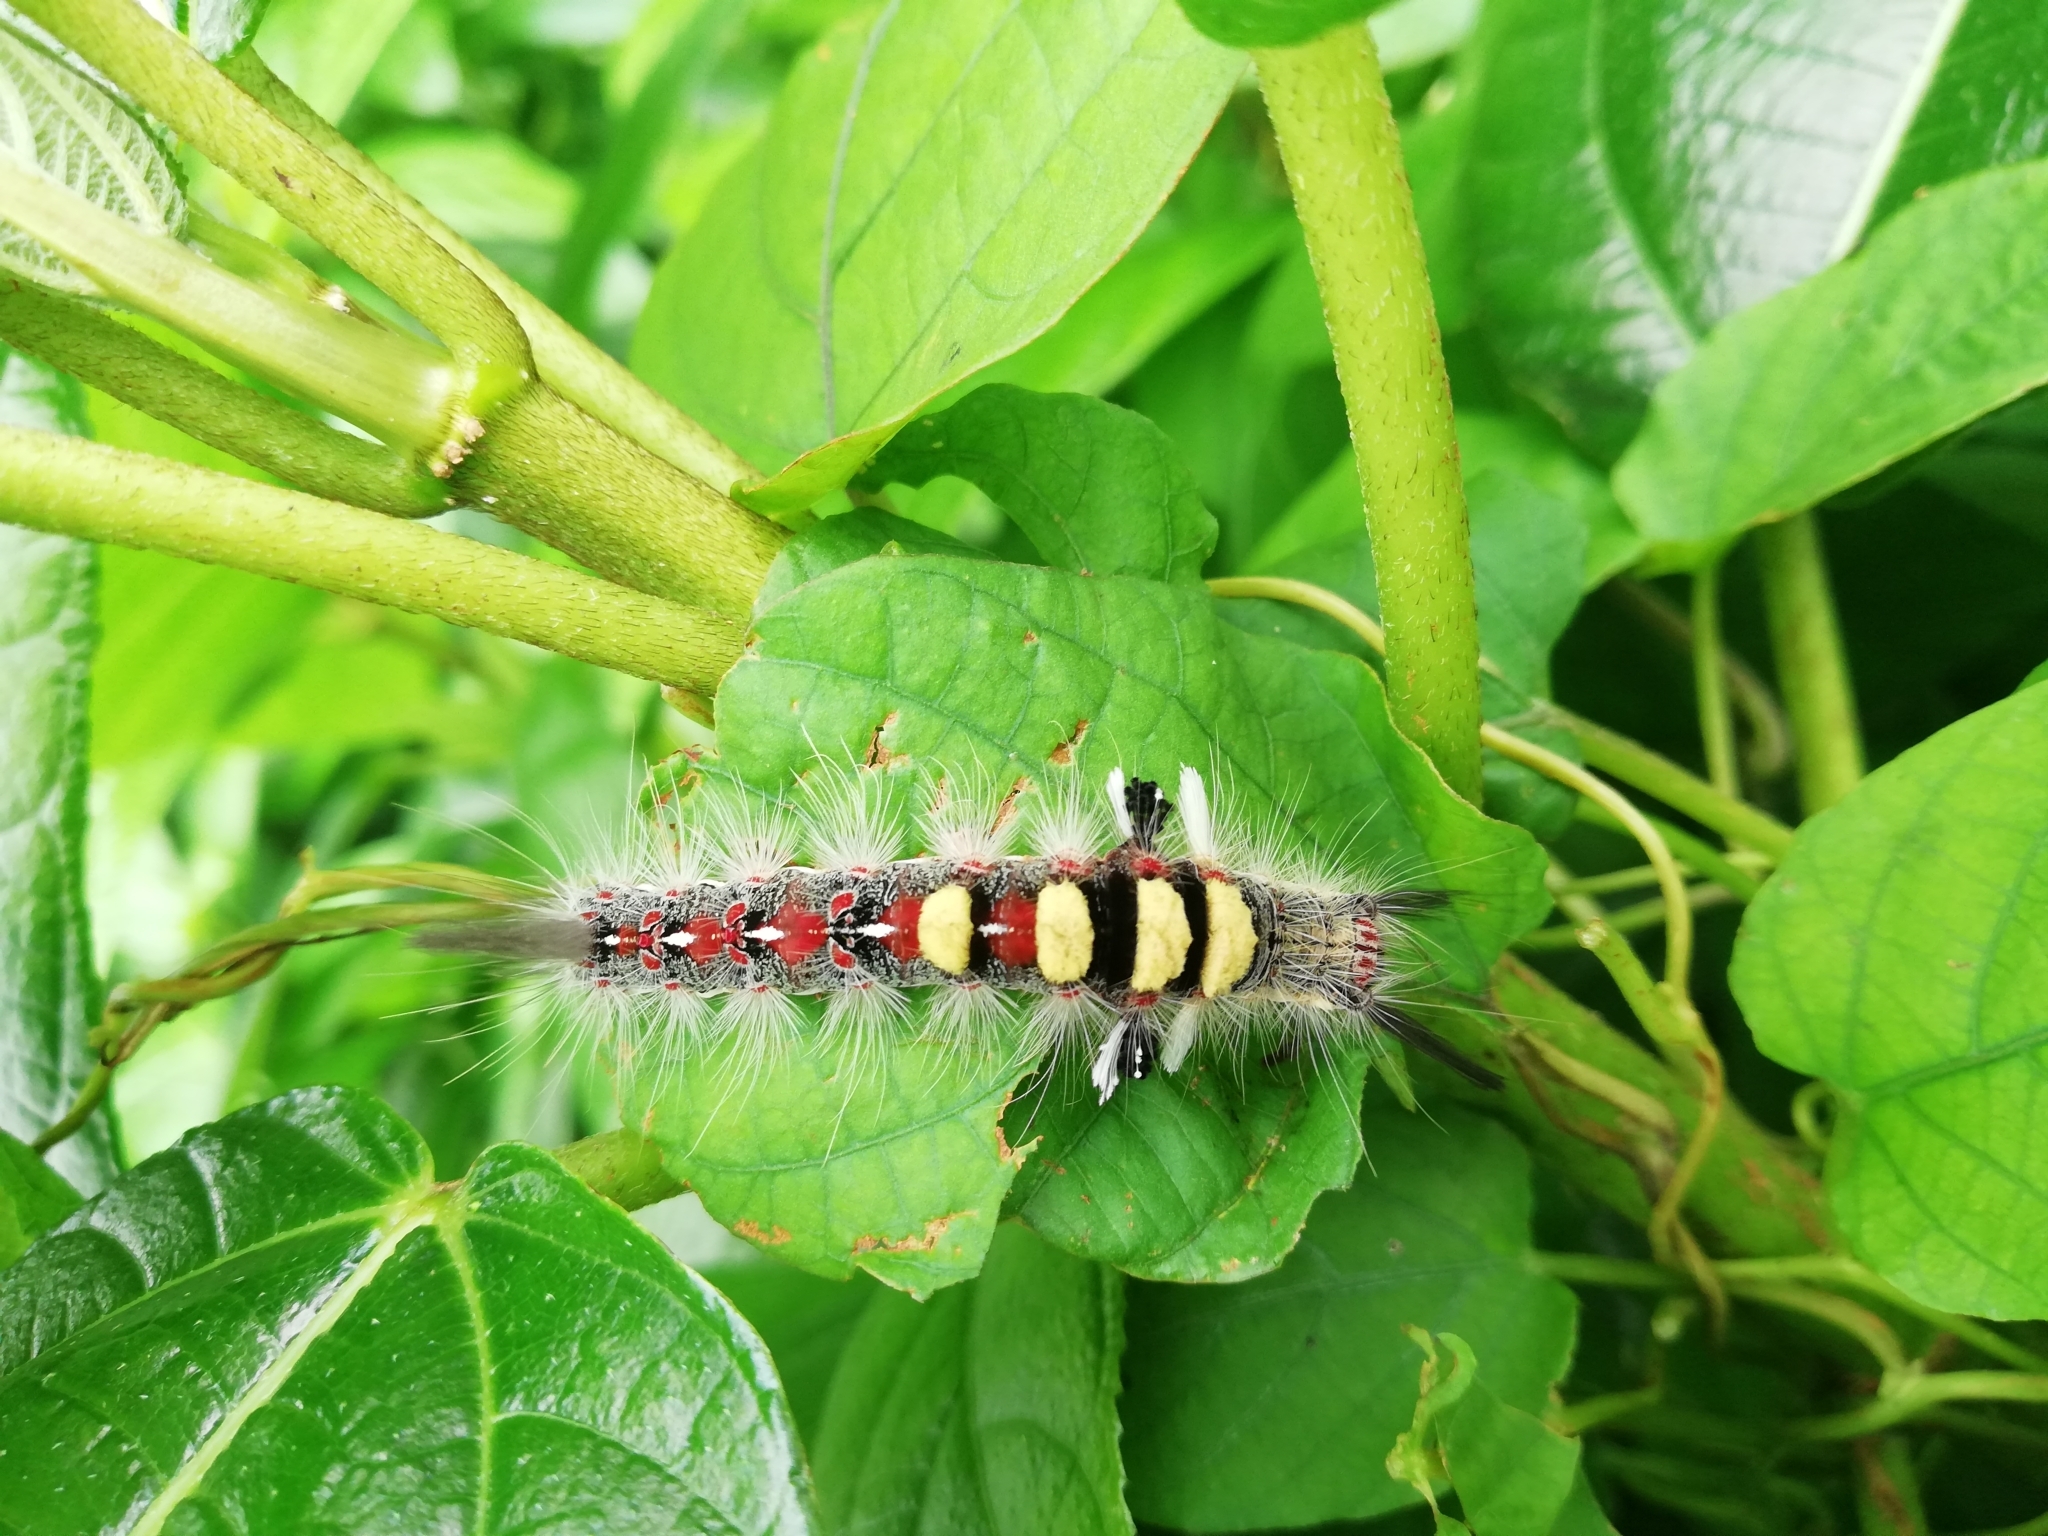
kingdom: Animalia
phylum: Arthropoda
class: Insecta
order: Lepidoptera
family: Erebidae
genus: Olene
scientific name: Olene mendosa
